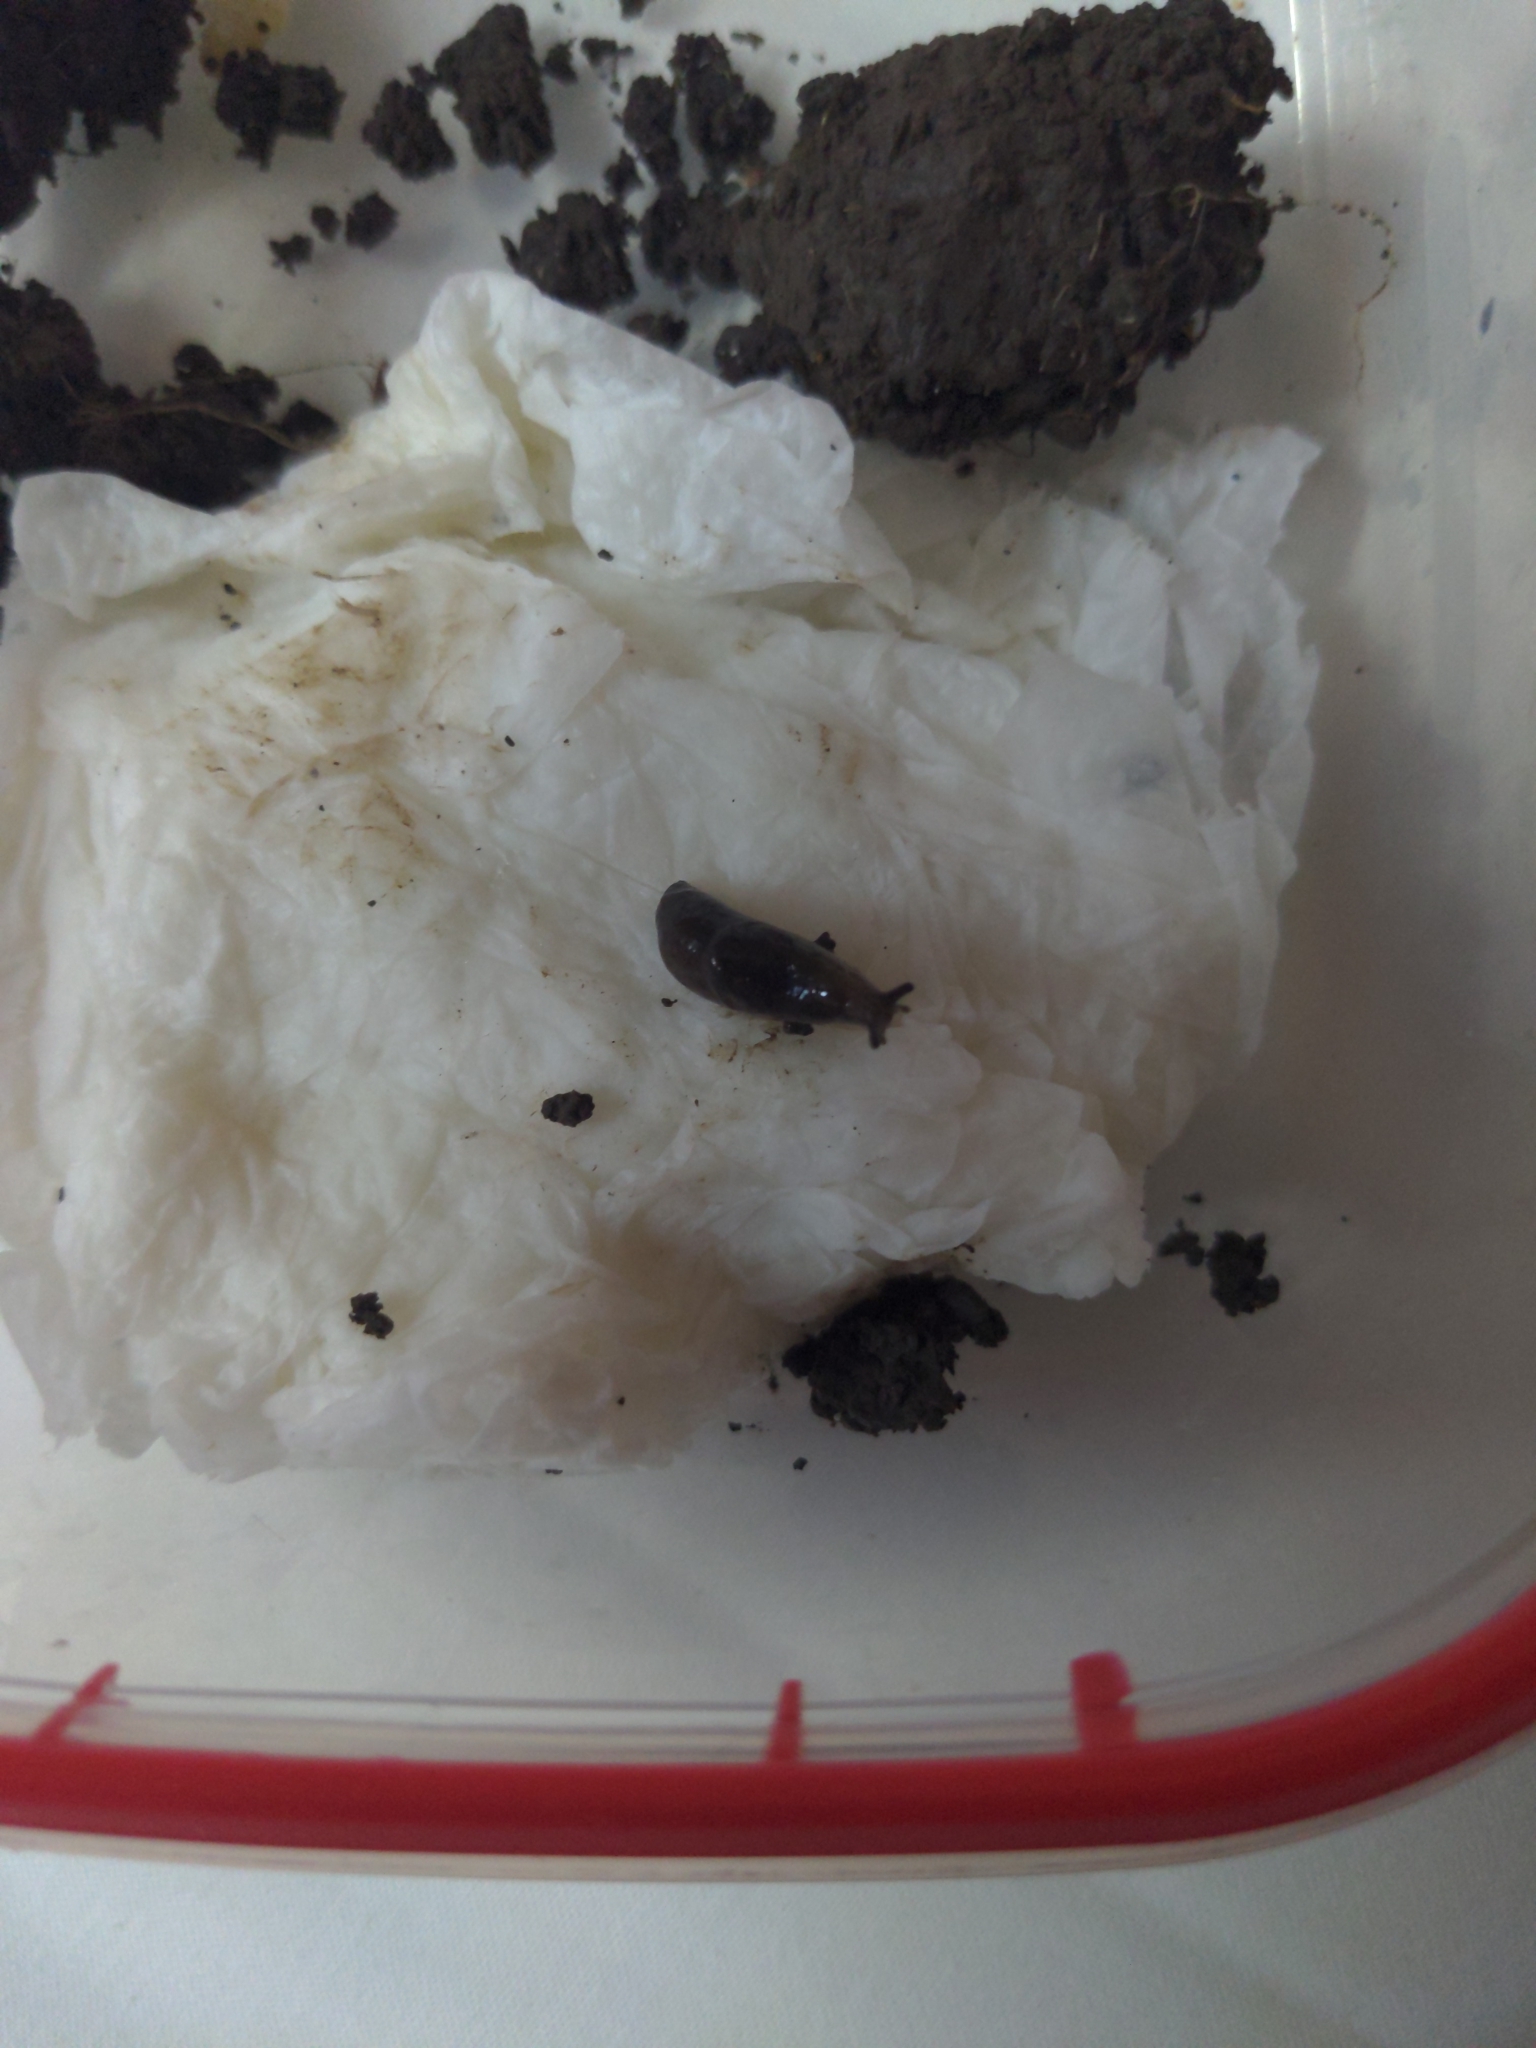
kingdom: Animalia
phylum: Mollusca
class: Gastropoda
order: Stylommatophora
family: Agriolimacidae
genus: Deroceras
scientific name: Deroceras laeve
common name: Marsh slug
